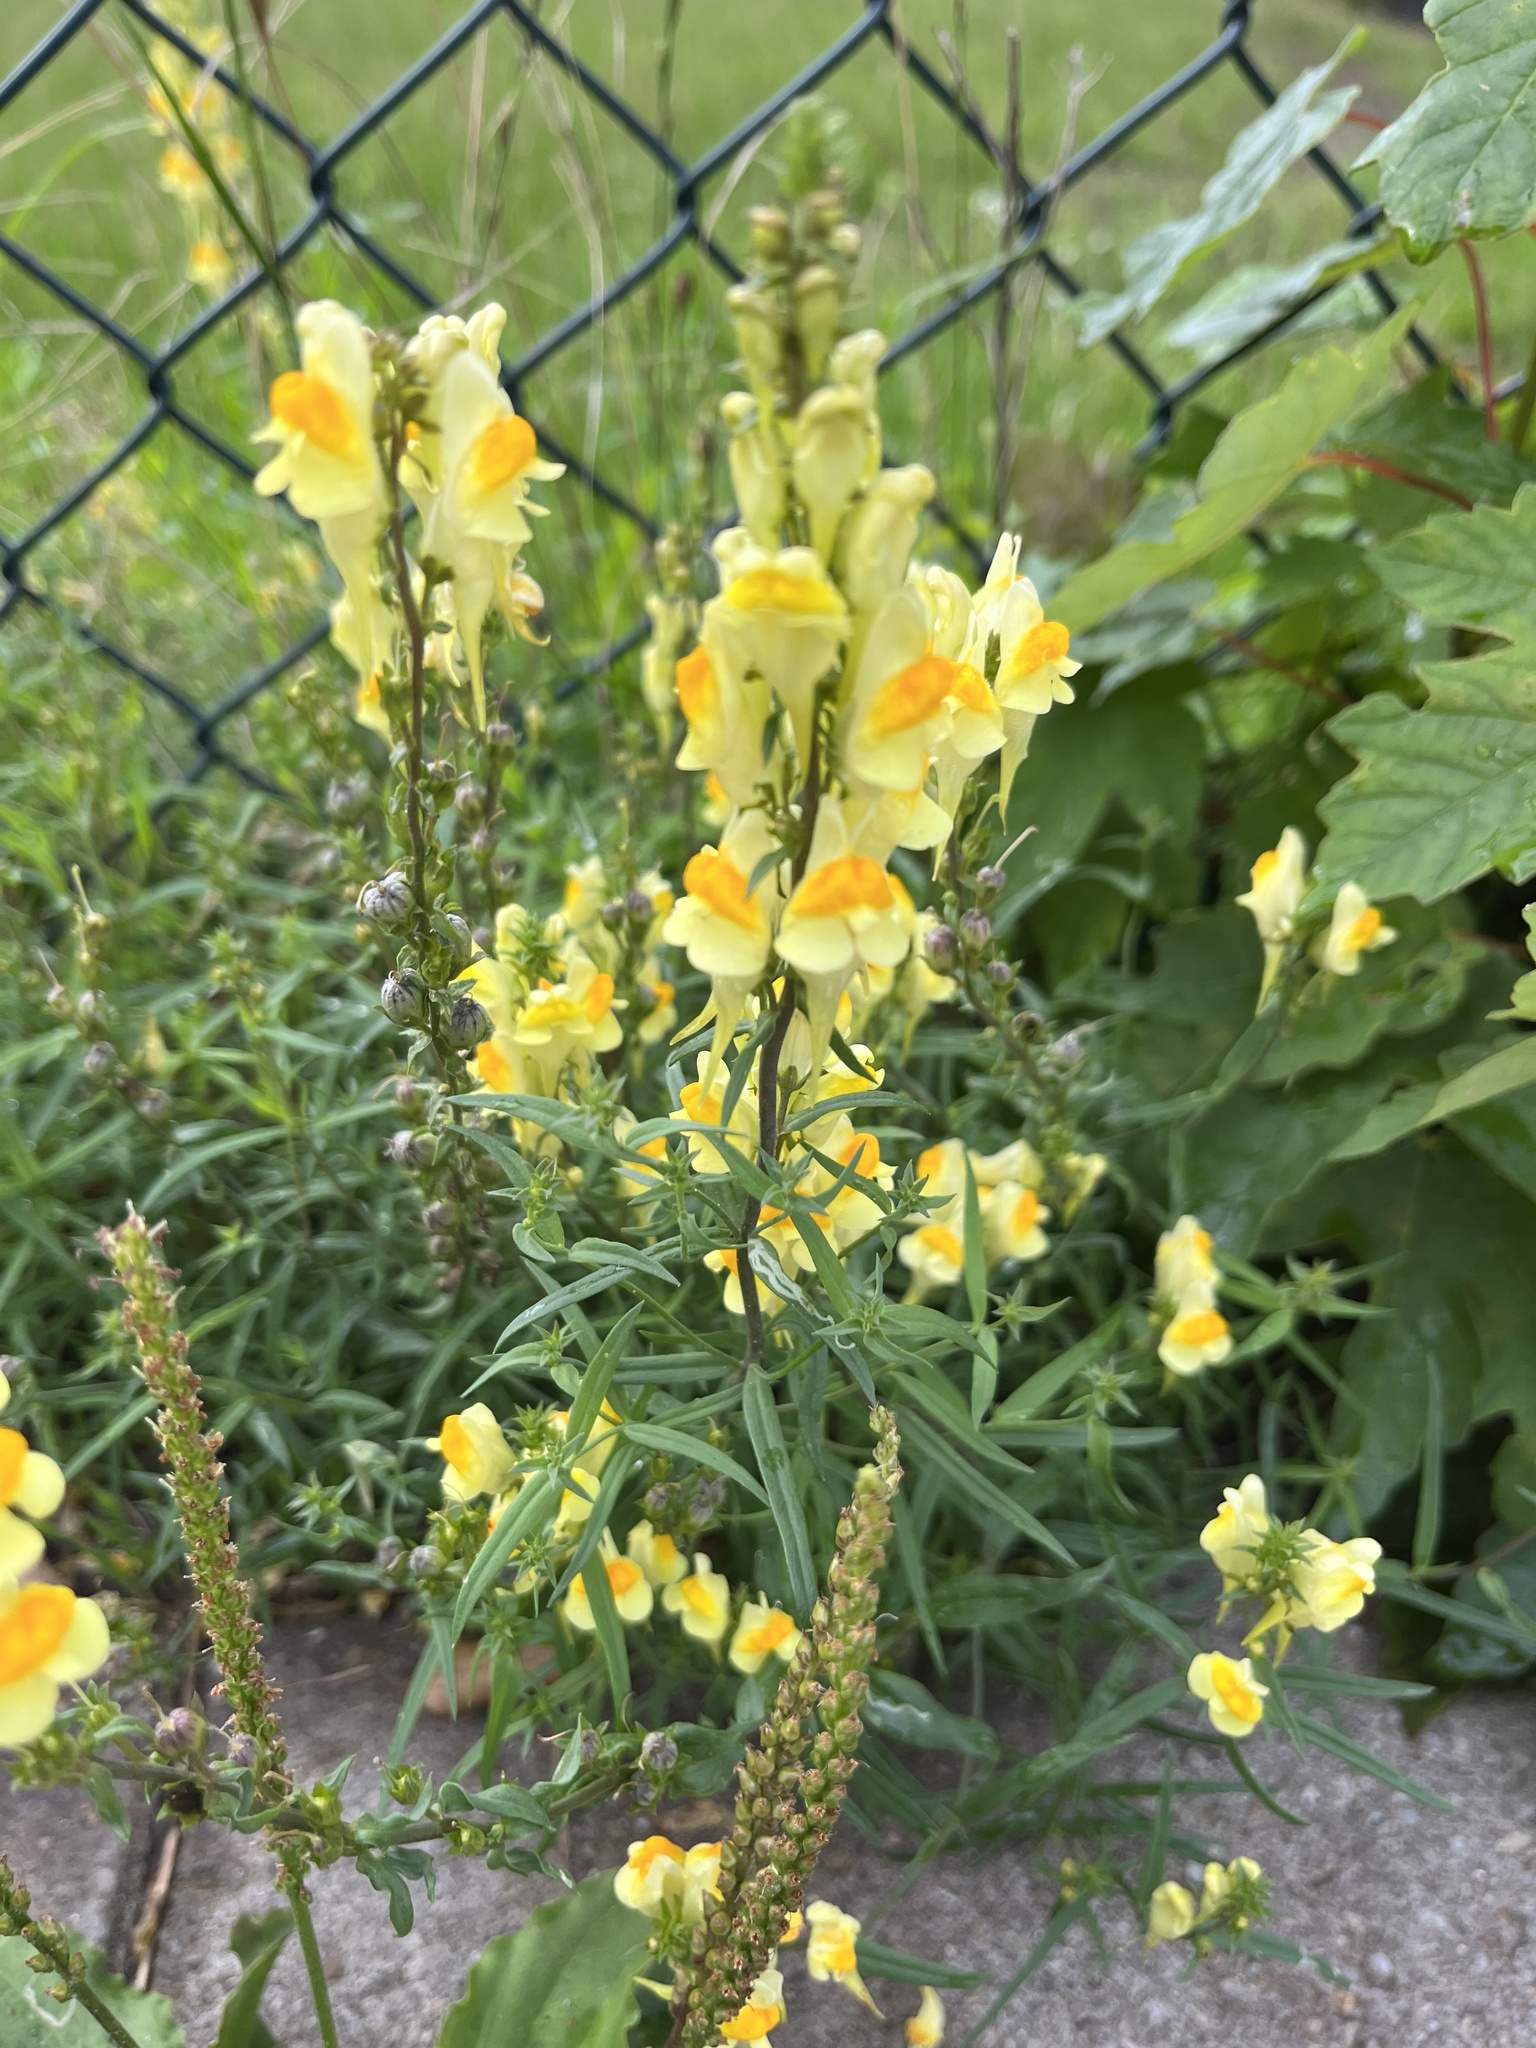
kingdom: Plantae
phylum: Tracheophyta
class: Magnoliopsida
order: Lamiales
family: Plantaginaceae
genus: Linaria
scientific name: Linaria vulgaris
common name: Butter and eggs
